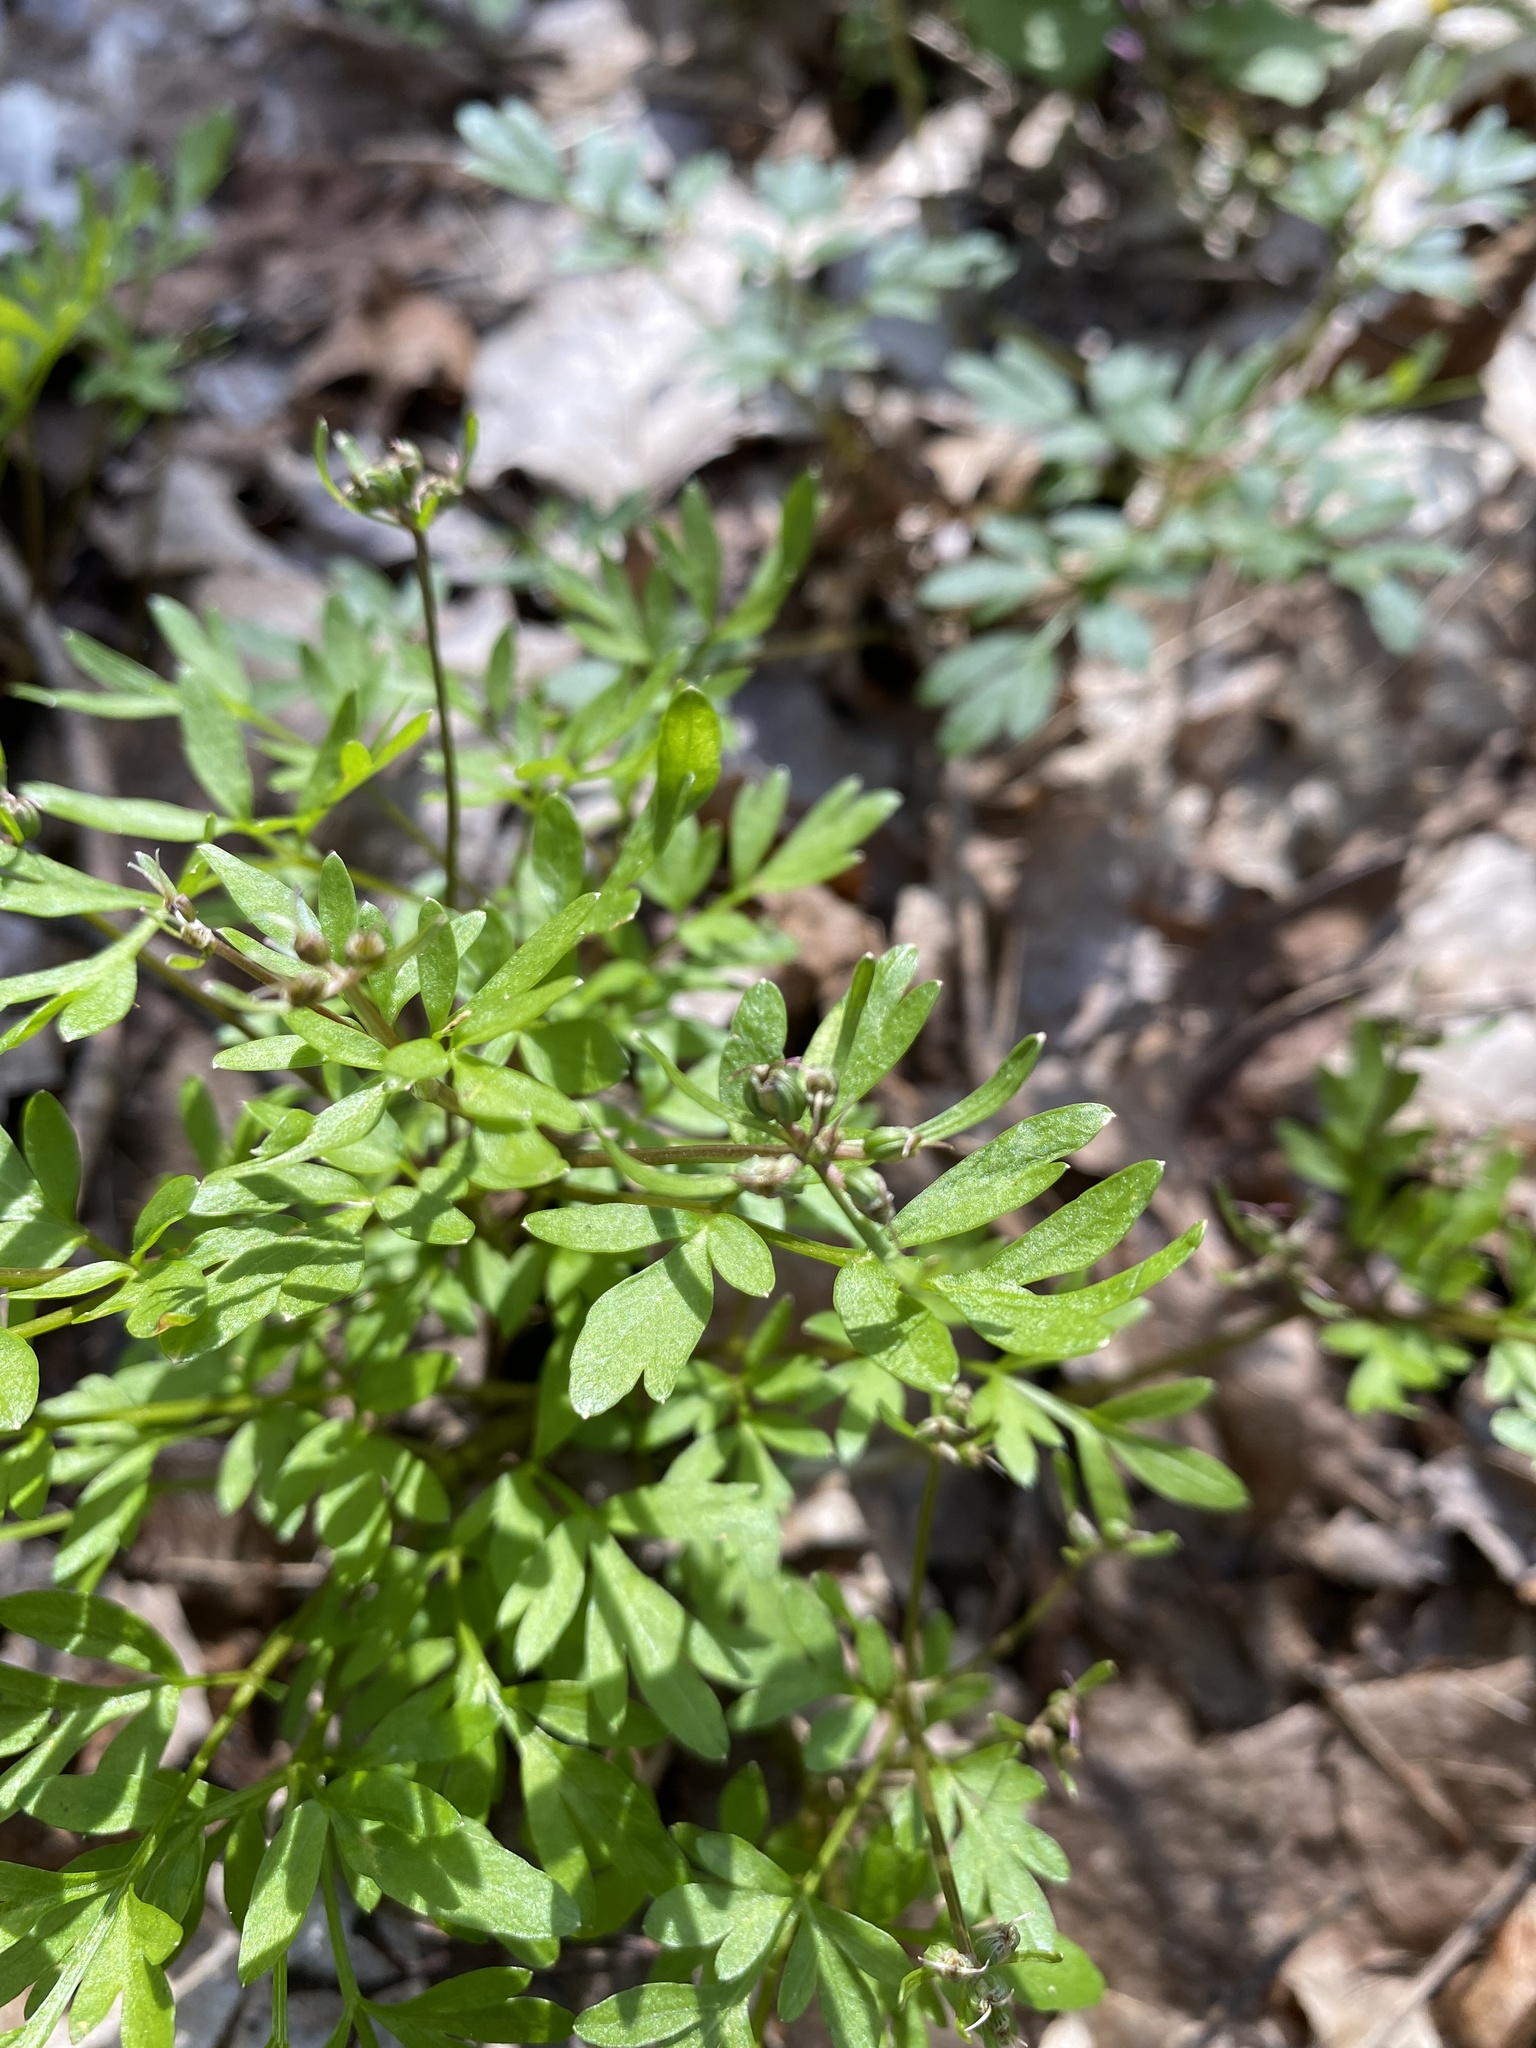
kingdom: Plantae
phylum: Tracheophyta
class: Magnoliopsida
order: Apiales
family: Apiaceae
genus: Erigenia
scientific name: Erigenia bulbosa
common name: Pepper-and-salt
